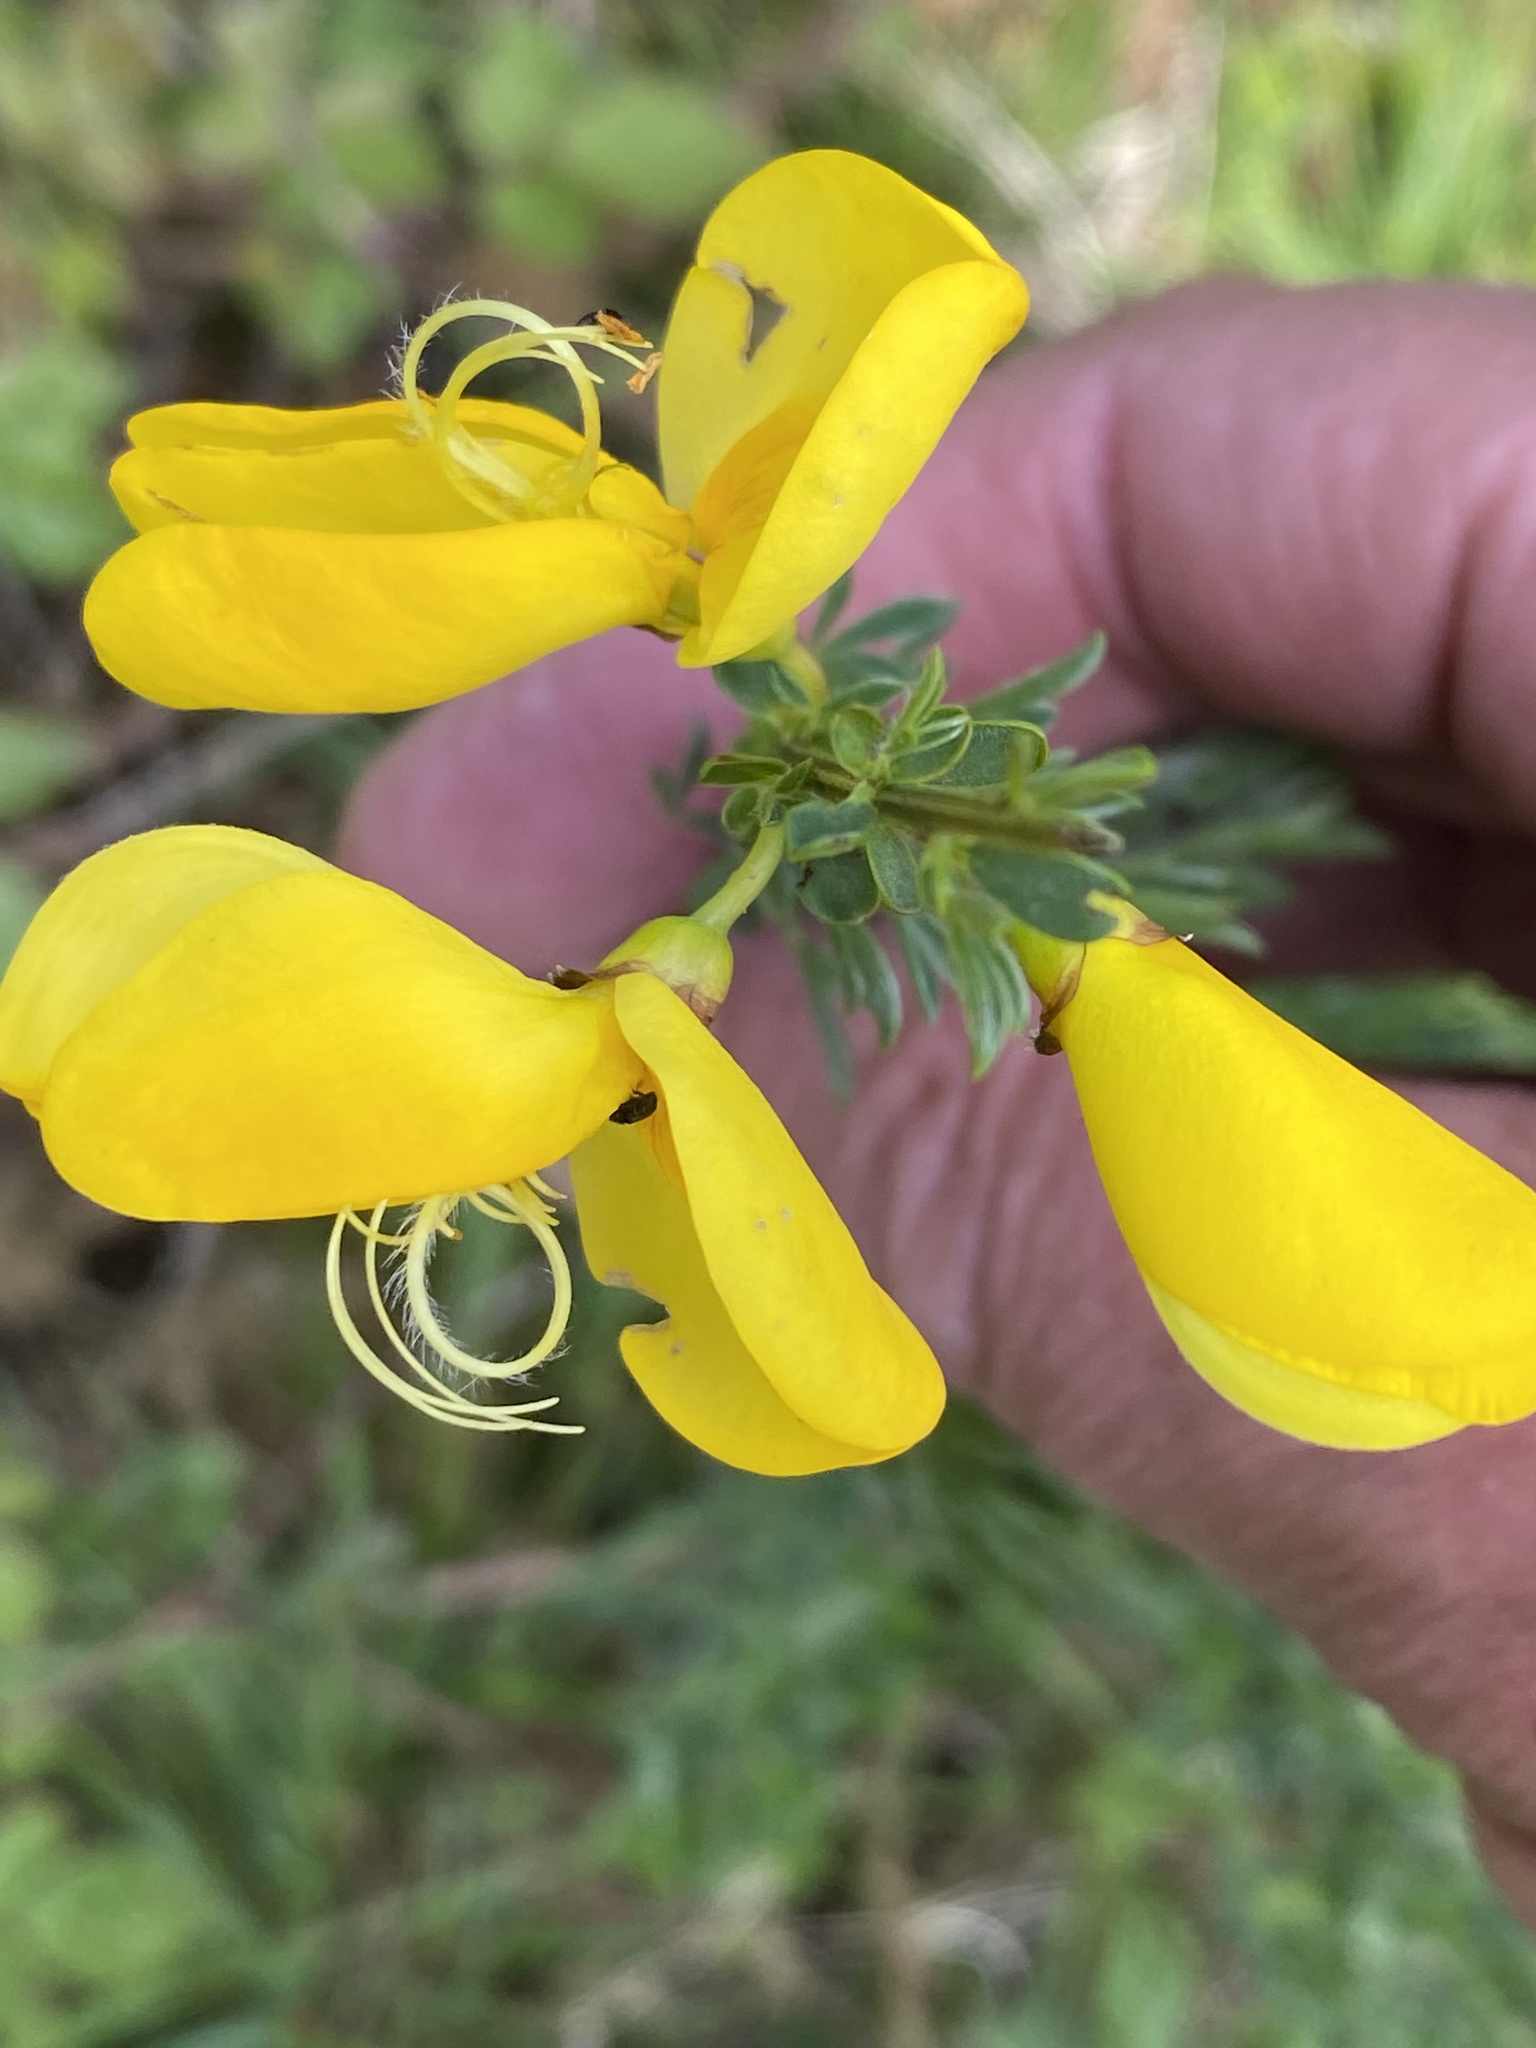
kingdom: Plantae
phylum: Tracheophyta
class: Magnoliopsida
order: Fabales
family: Fabaceae
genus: Cytisus
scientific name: Cytisus scoparius
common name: Scotch broom
